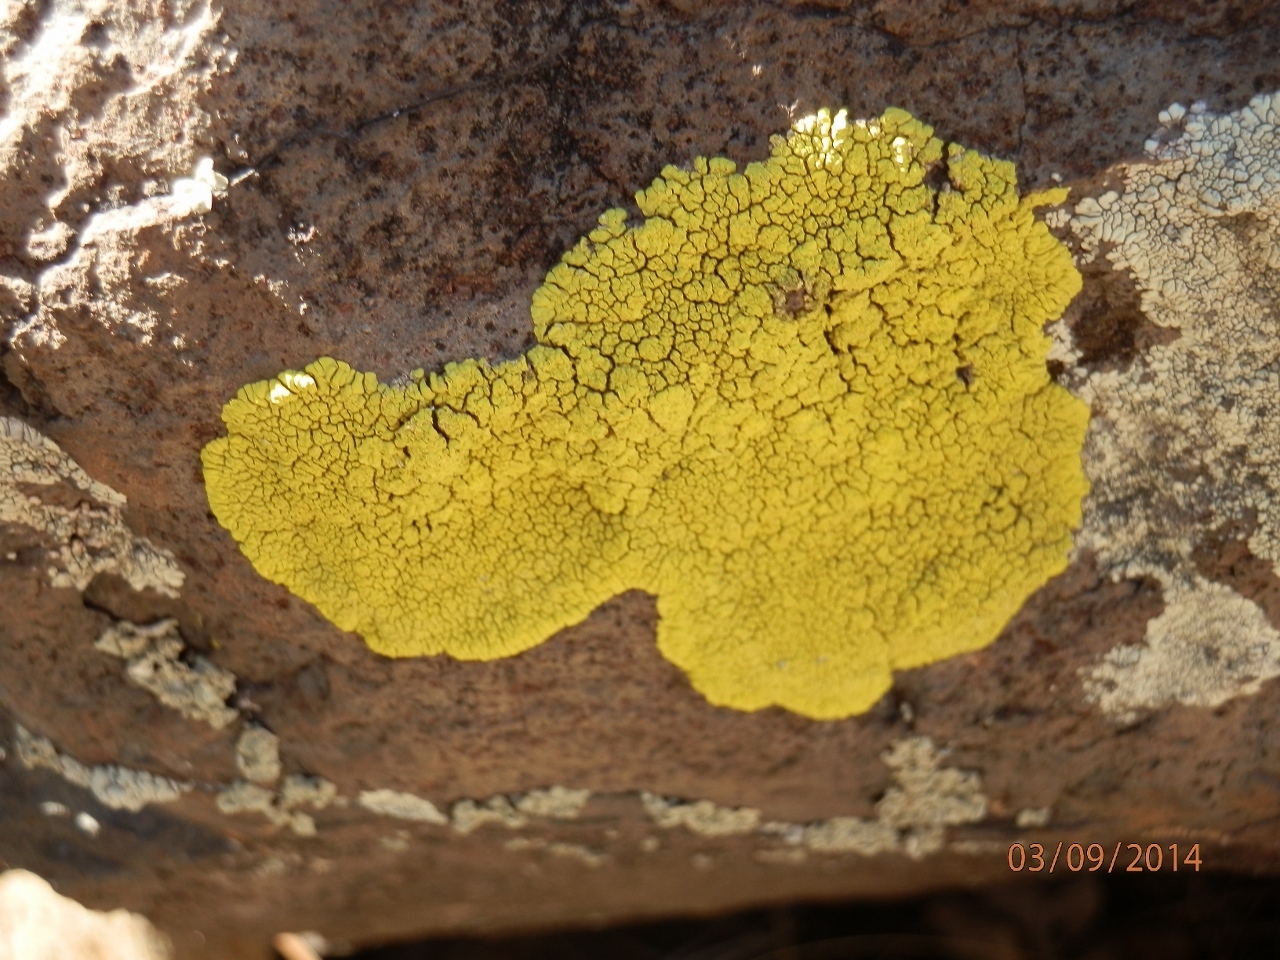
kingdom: Fungi
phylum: Ascomycota
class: Lecanoromycetes
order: Acarosporales
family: Acarosporaceae
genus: Pleopsidium
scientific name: Pleopsidium oxytonum
